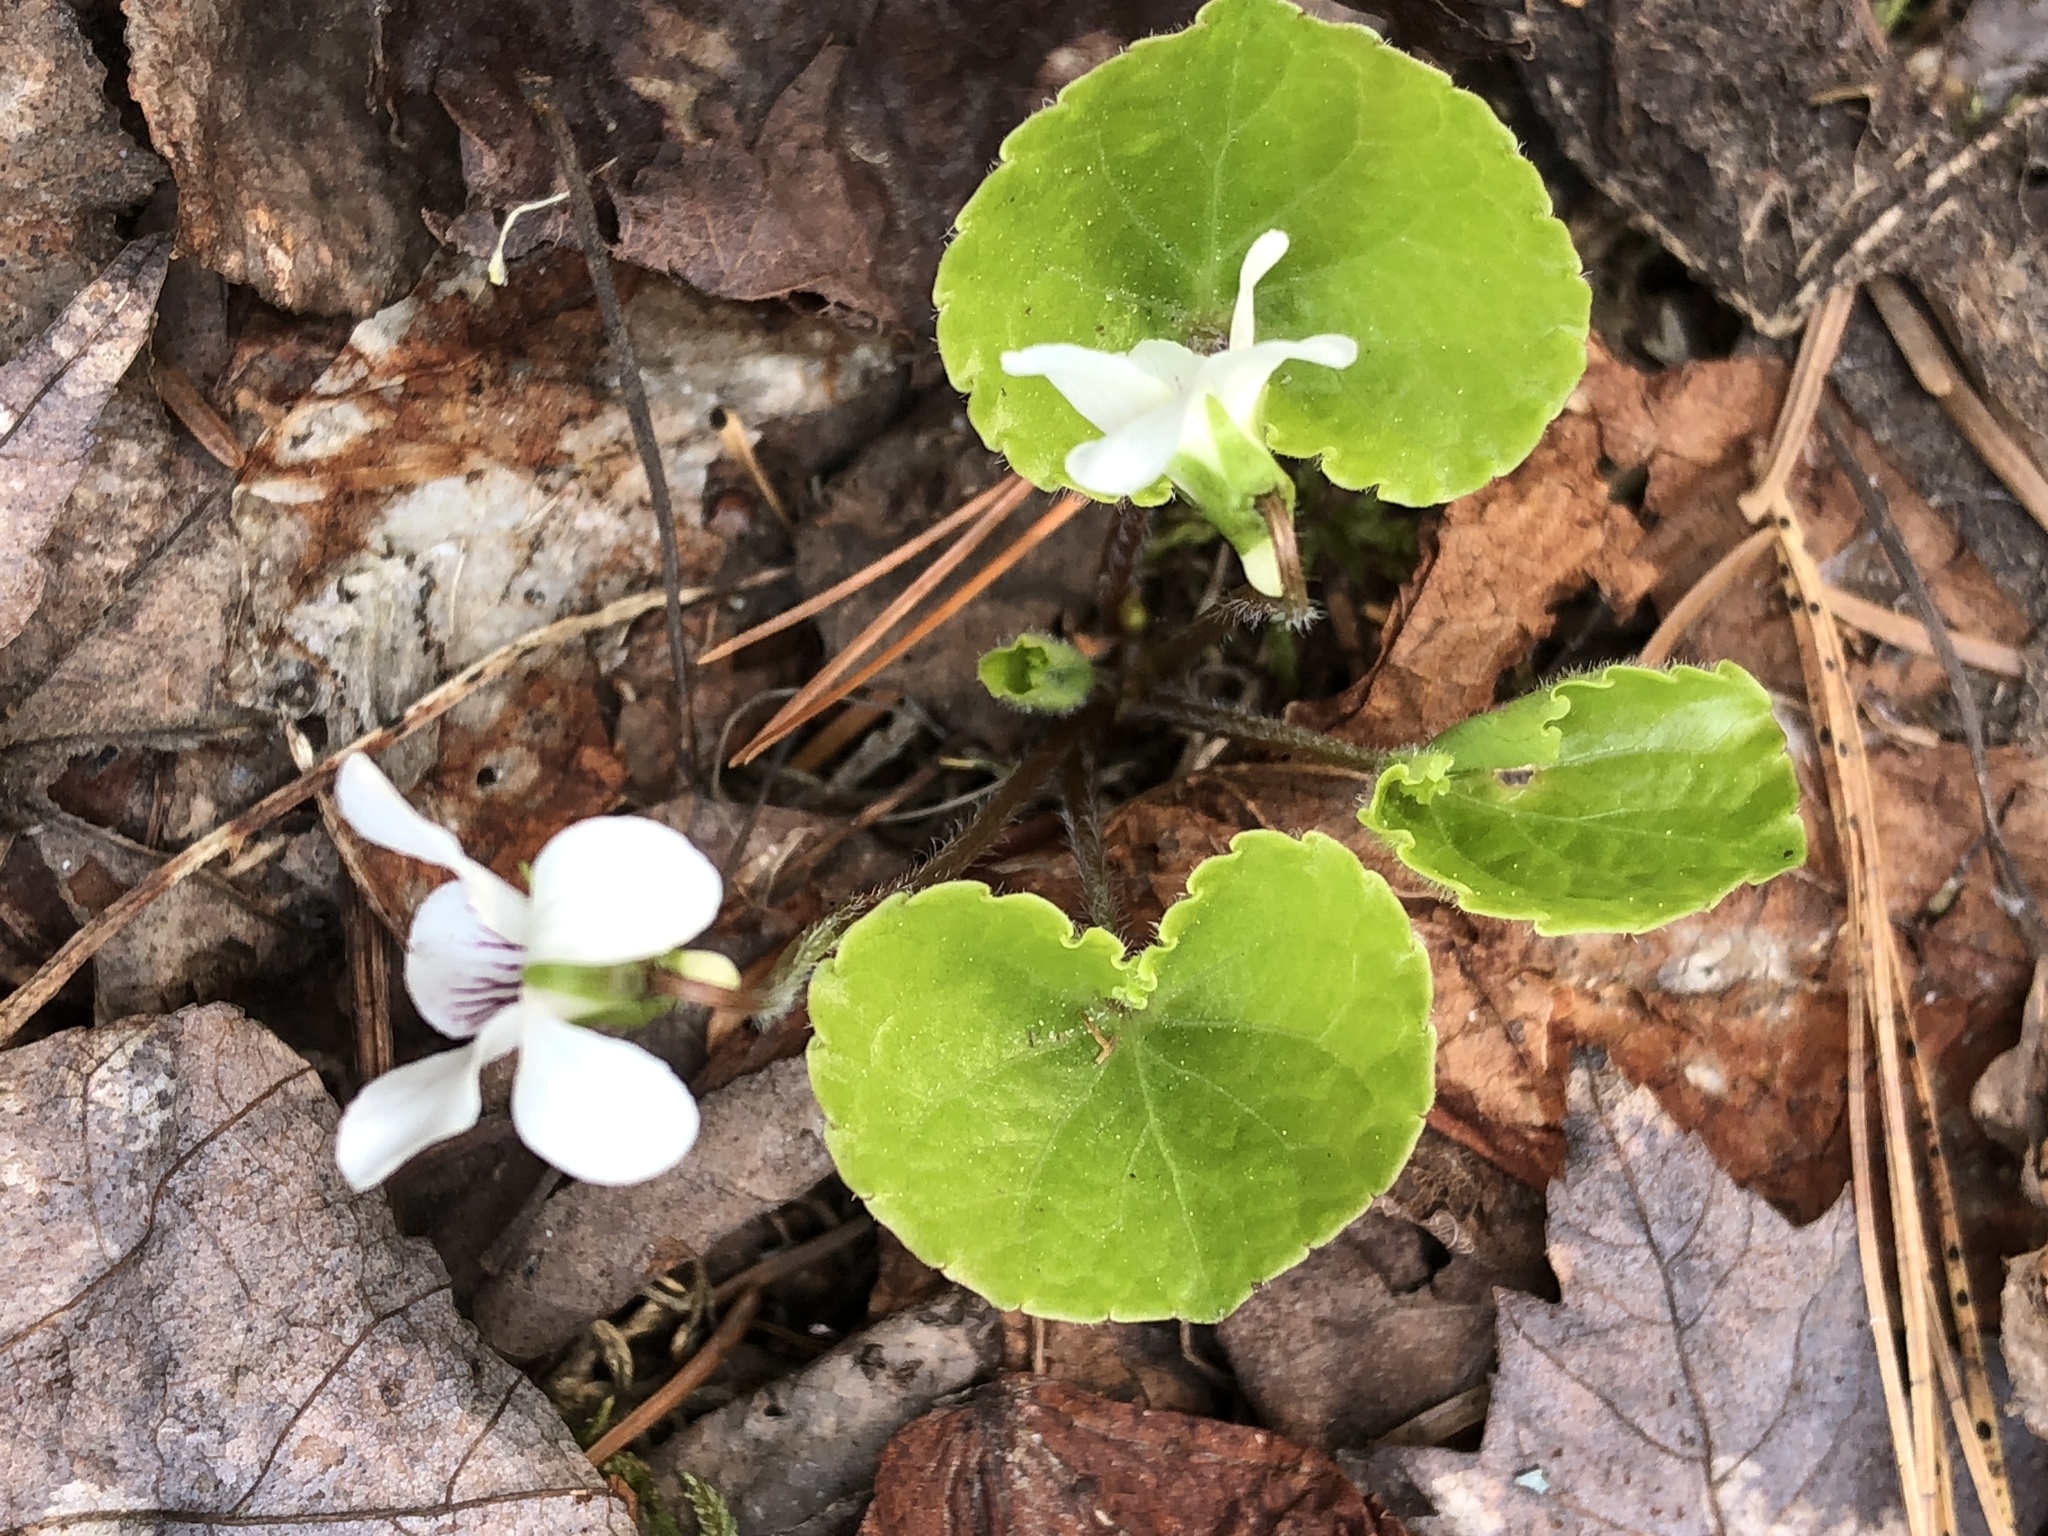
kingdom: Plantae
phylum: Tracheophyta
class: Magnoliopsida
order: Malpighiales
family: Violaceae
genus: Viola
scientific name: Viola renifolia
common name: Kidney-leaf violet
